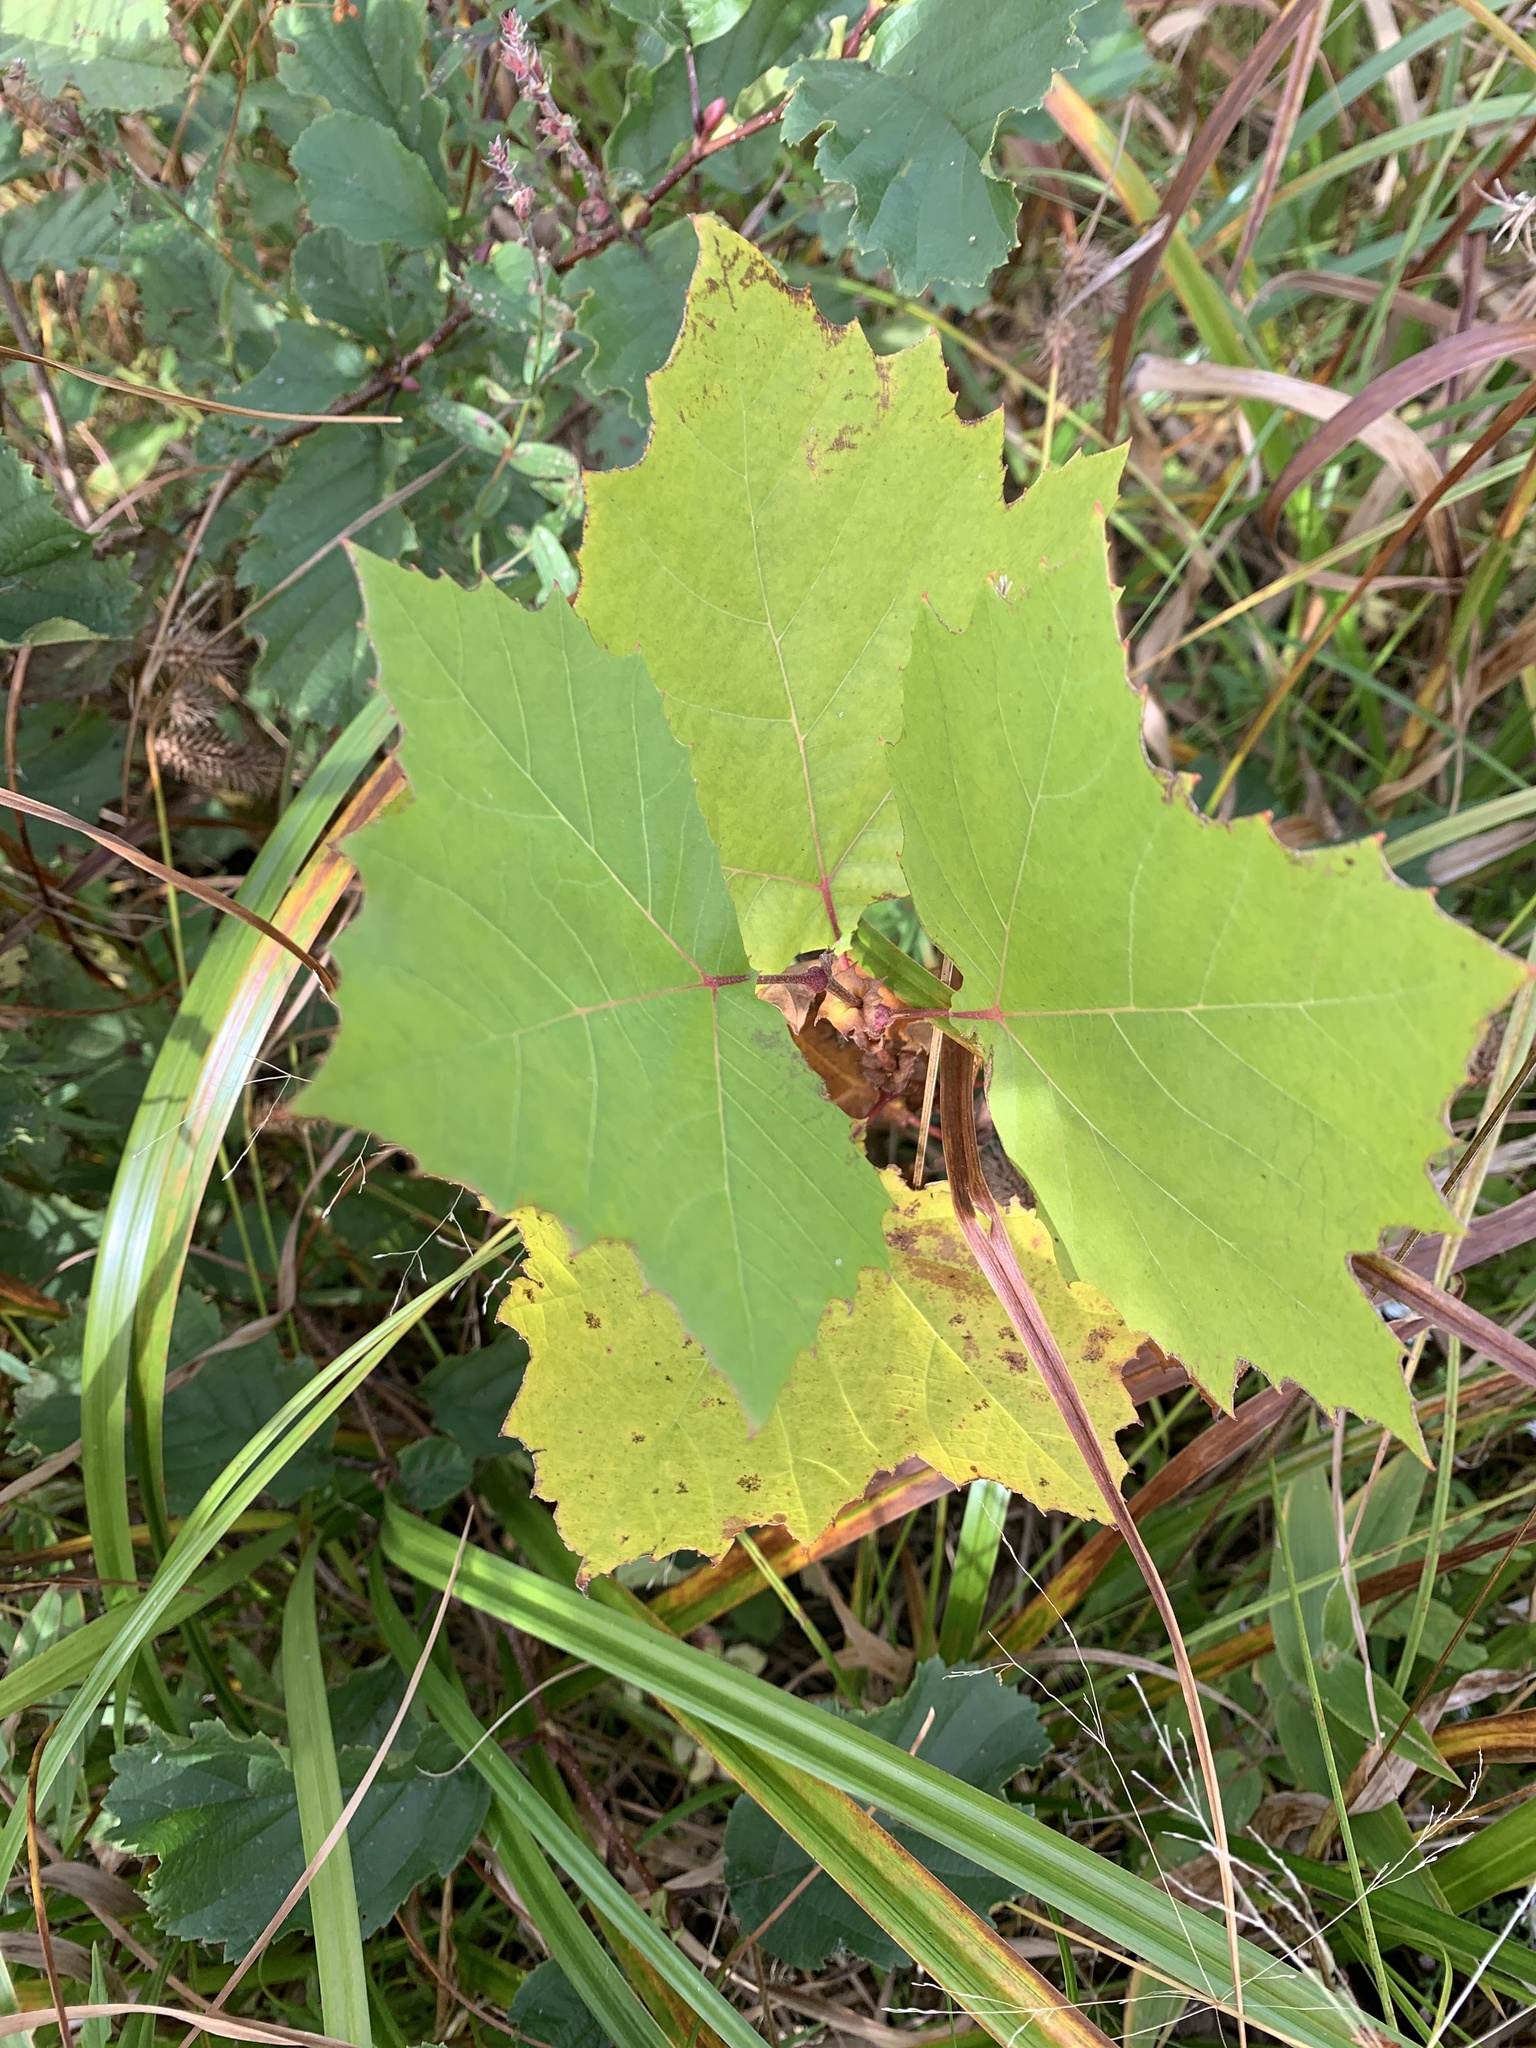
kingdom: Plantae
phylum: Tracheophyta
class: Magnoliopsida
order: Proteales
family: Platanaceae
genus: Platanus
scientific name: Platanus occidentalis
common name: American sycamore
